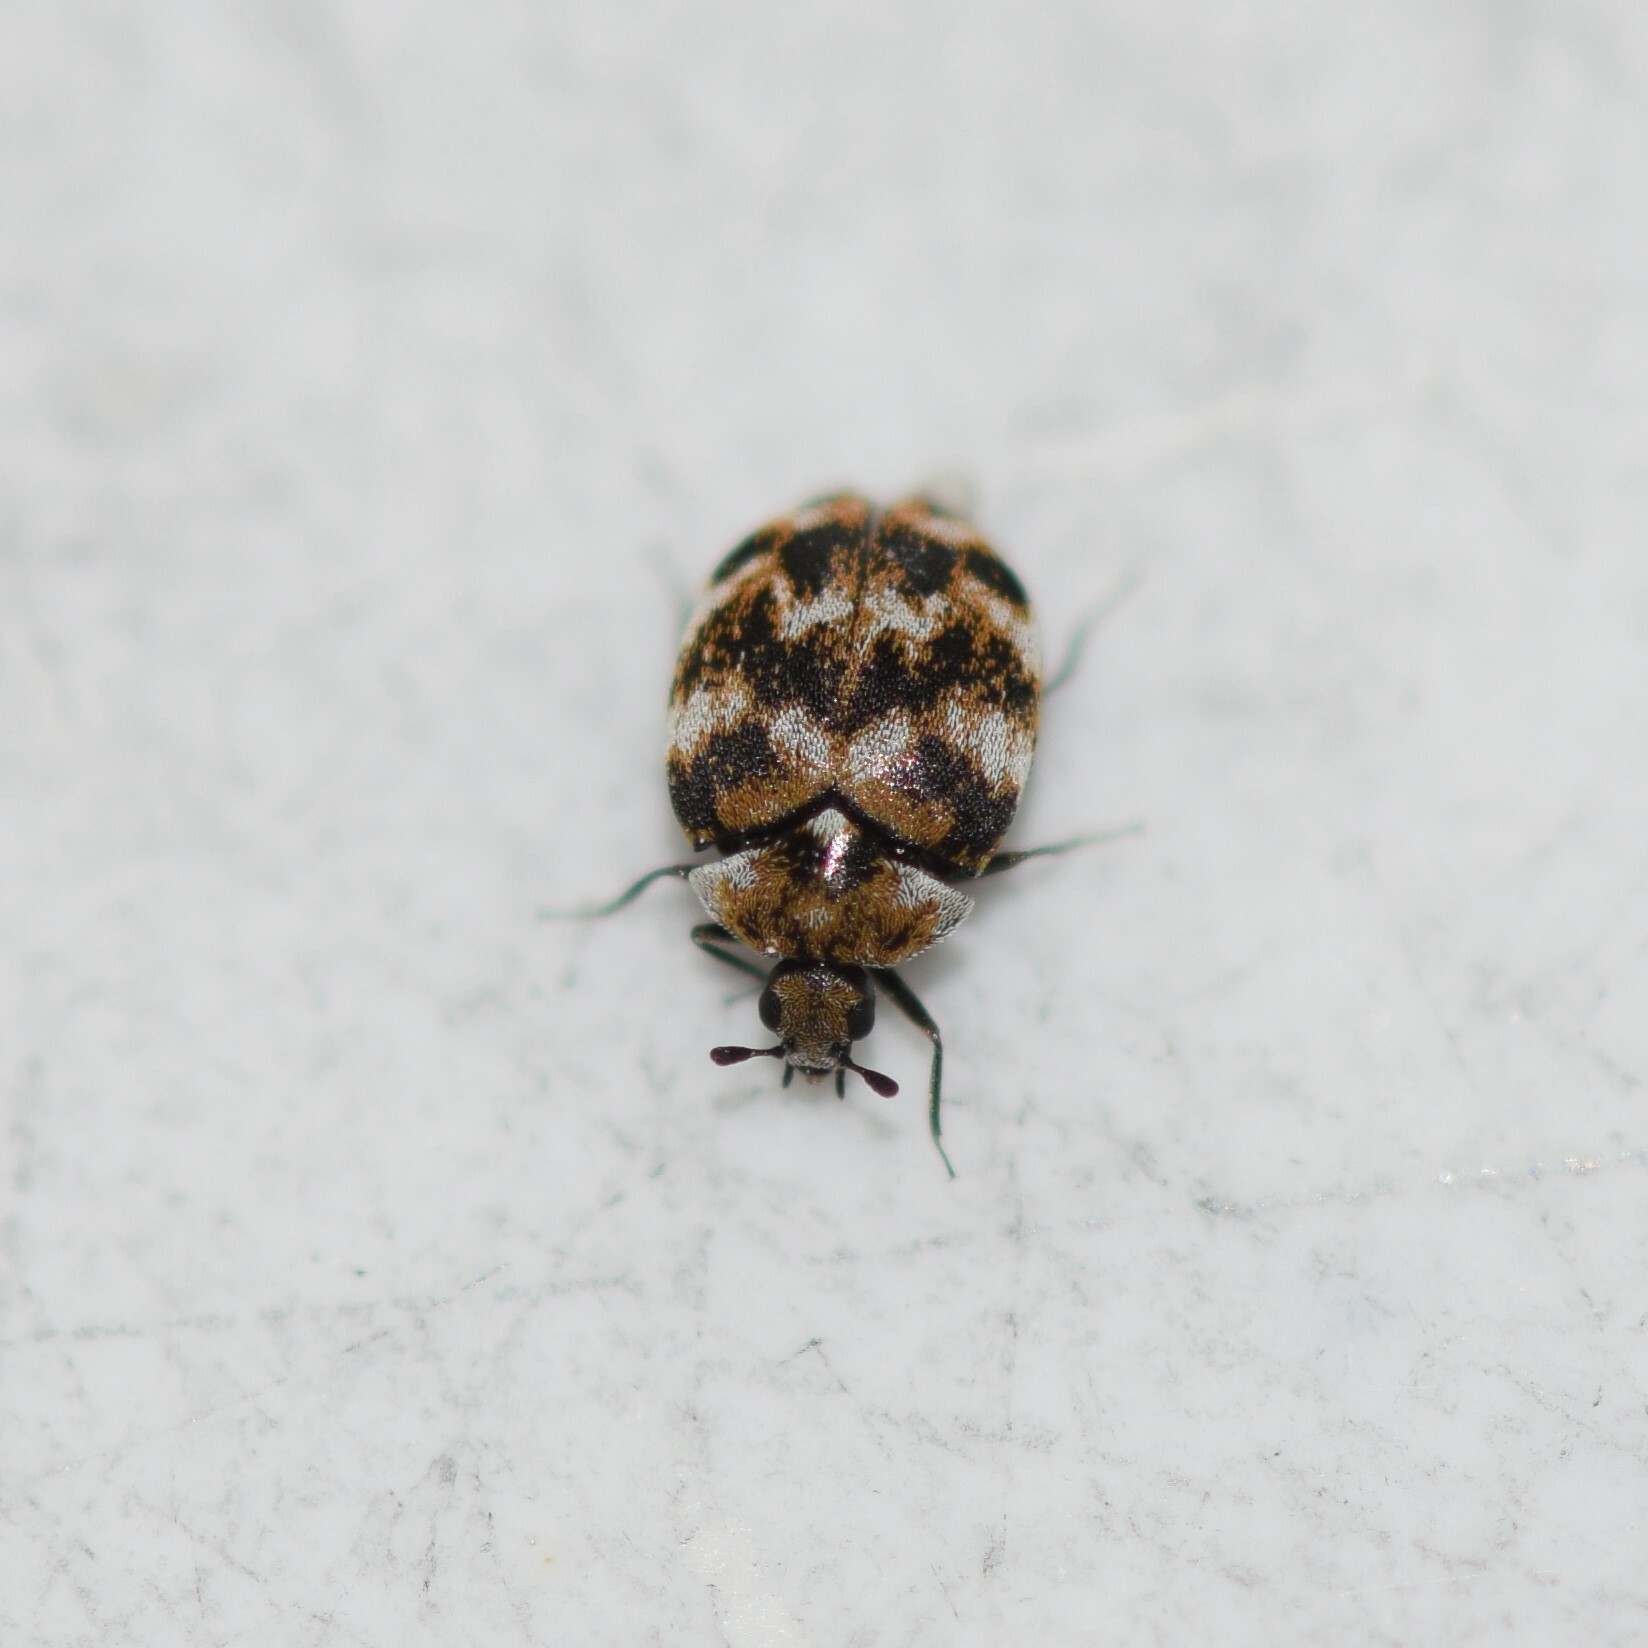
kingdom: Animalia
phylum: Arthropoda
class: Insecta
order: Coleoptera
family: Dermestidae
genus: Anthrenus
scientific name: Anthrenus verbasci
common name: Varied carpet beetle
